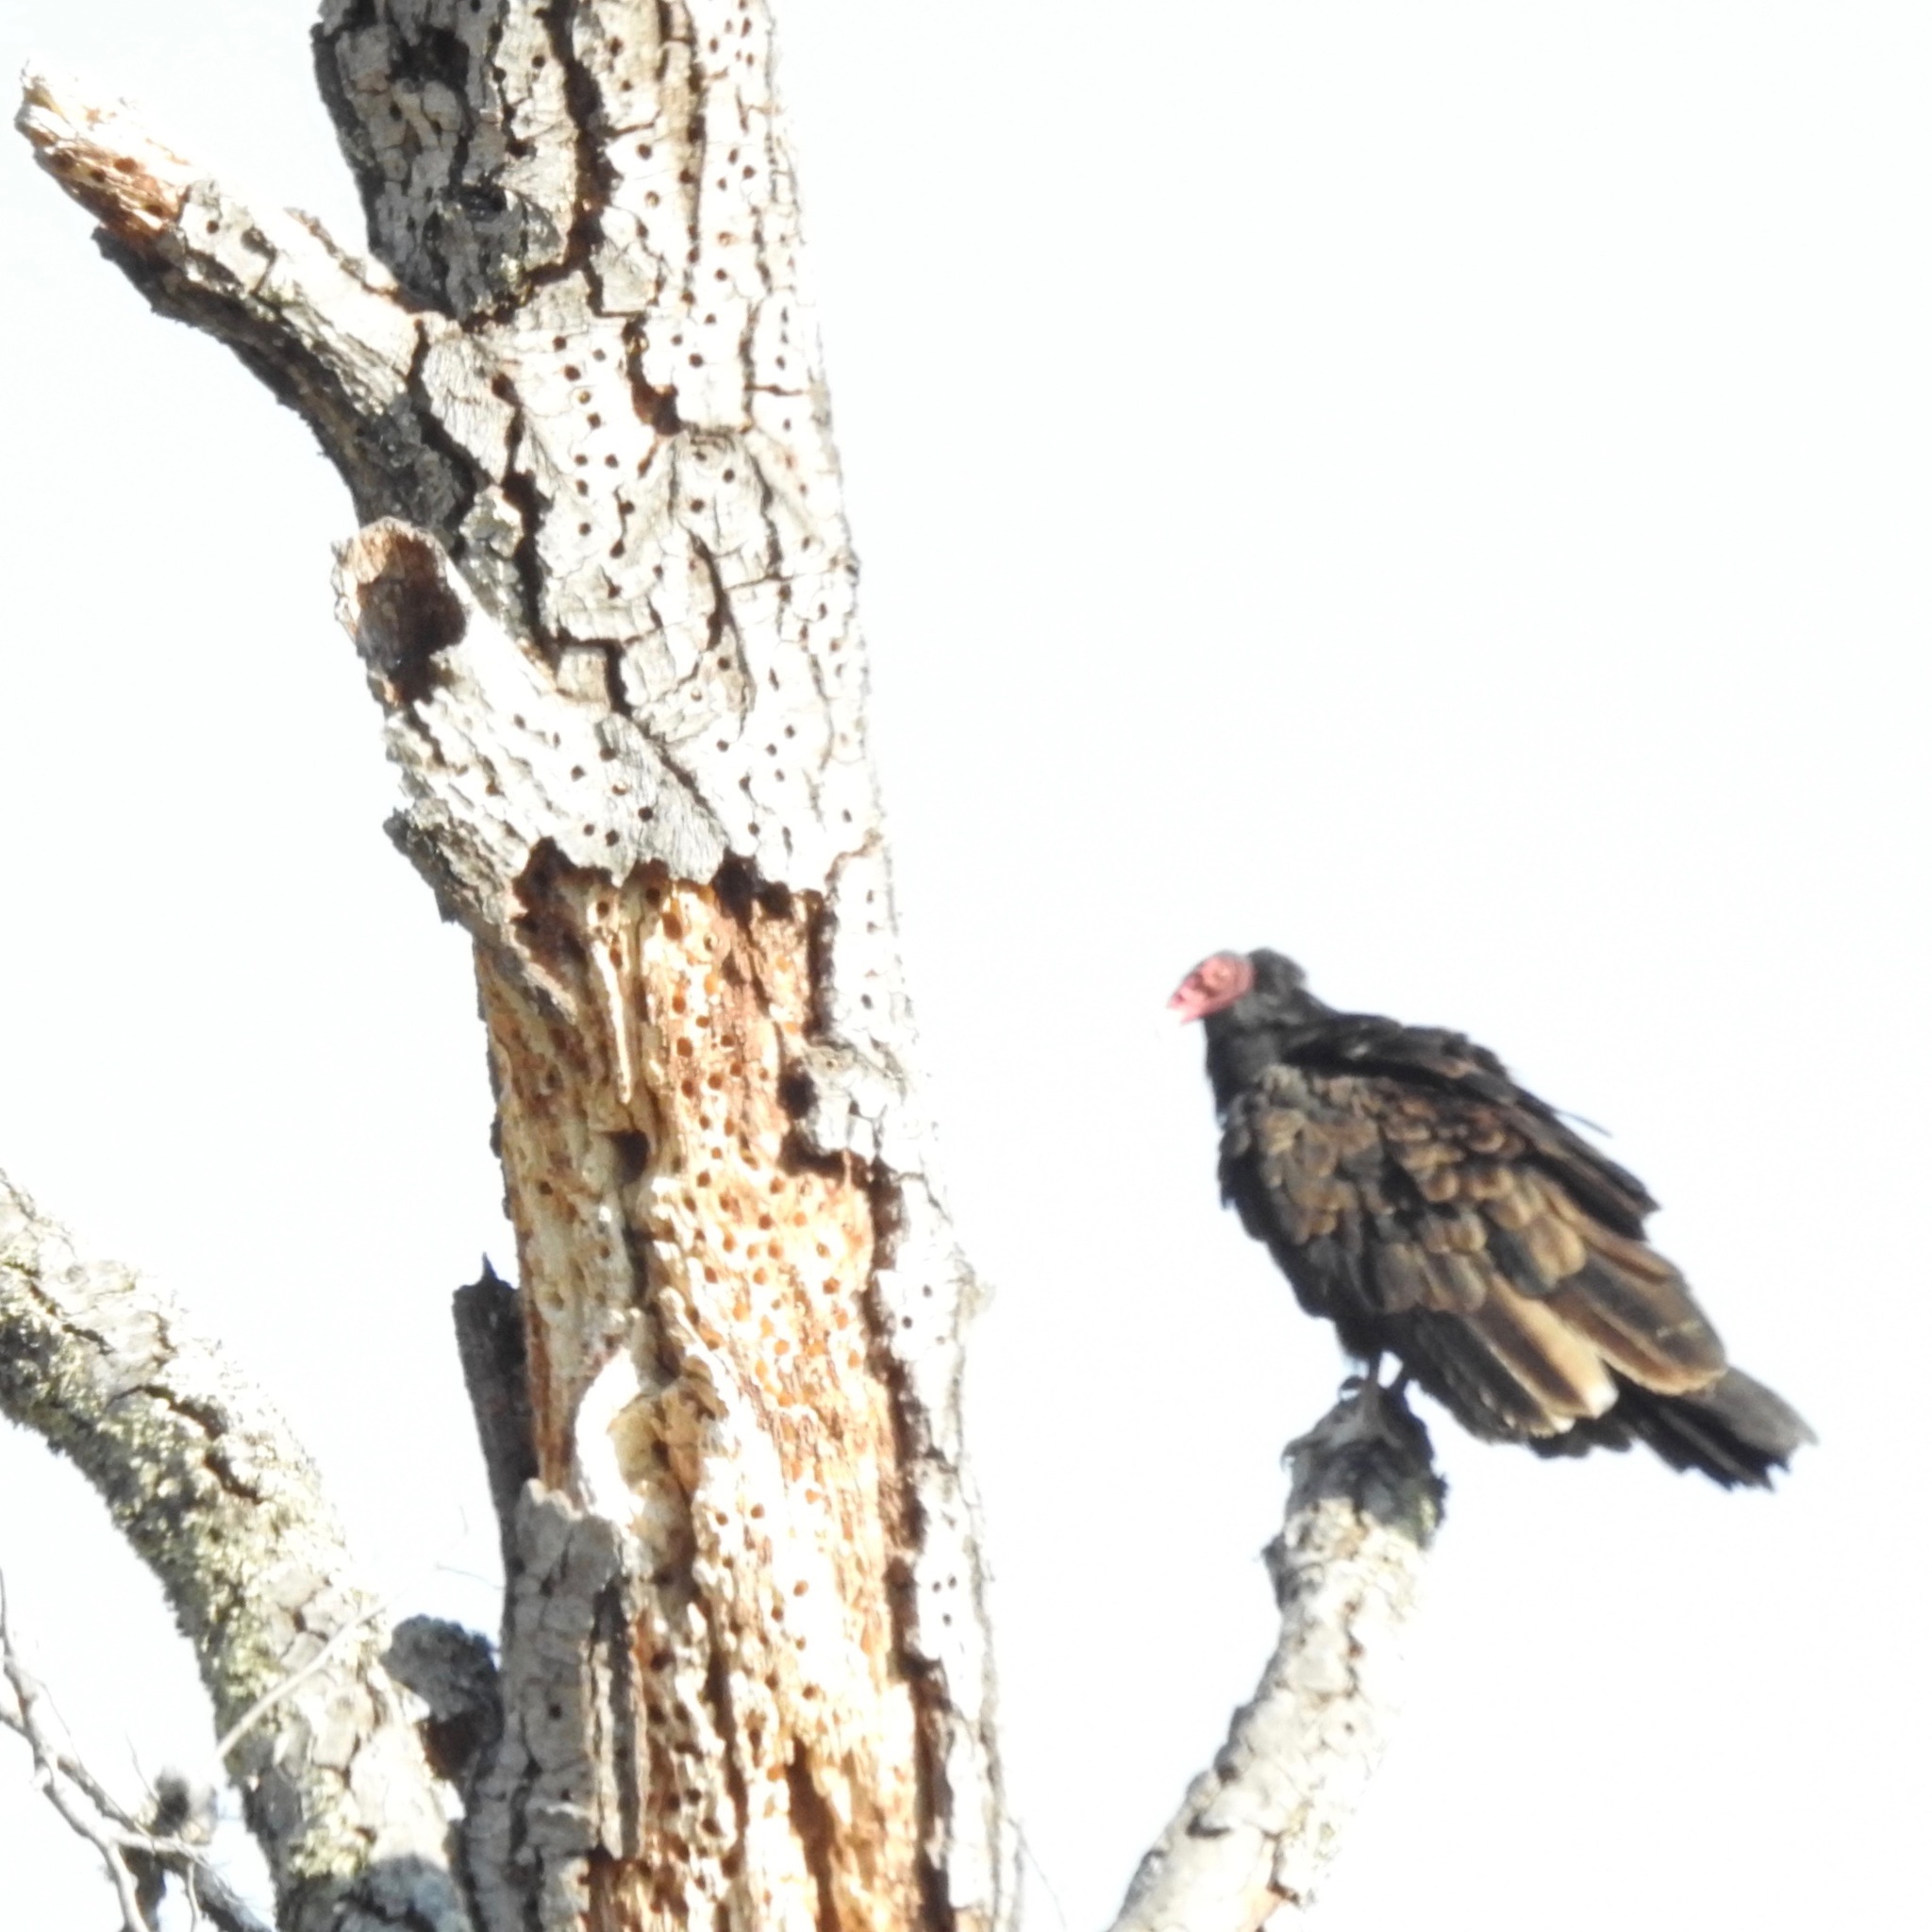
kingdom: Animalia
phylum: Chordata
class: Aves
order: Accipitriformes
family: Cathartidae
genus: Cathartes
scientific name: Cathartes aura
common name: Turkey vulture
